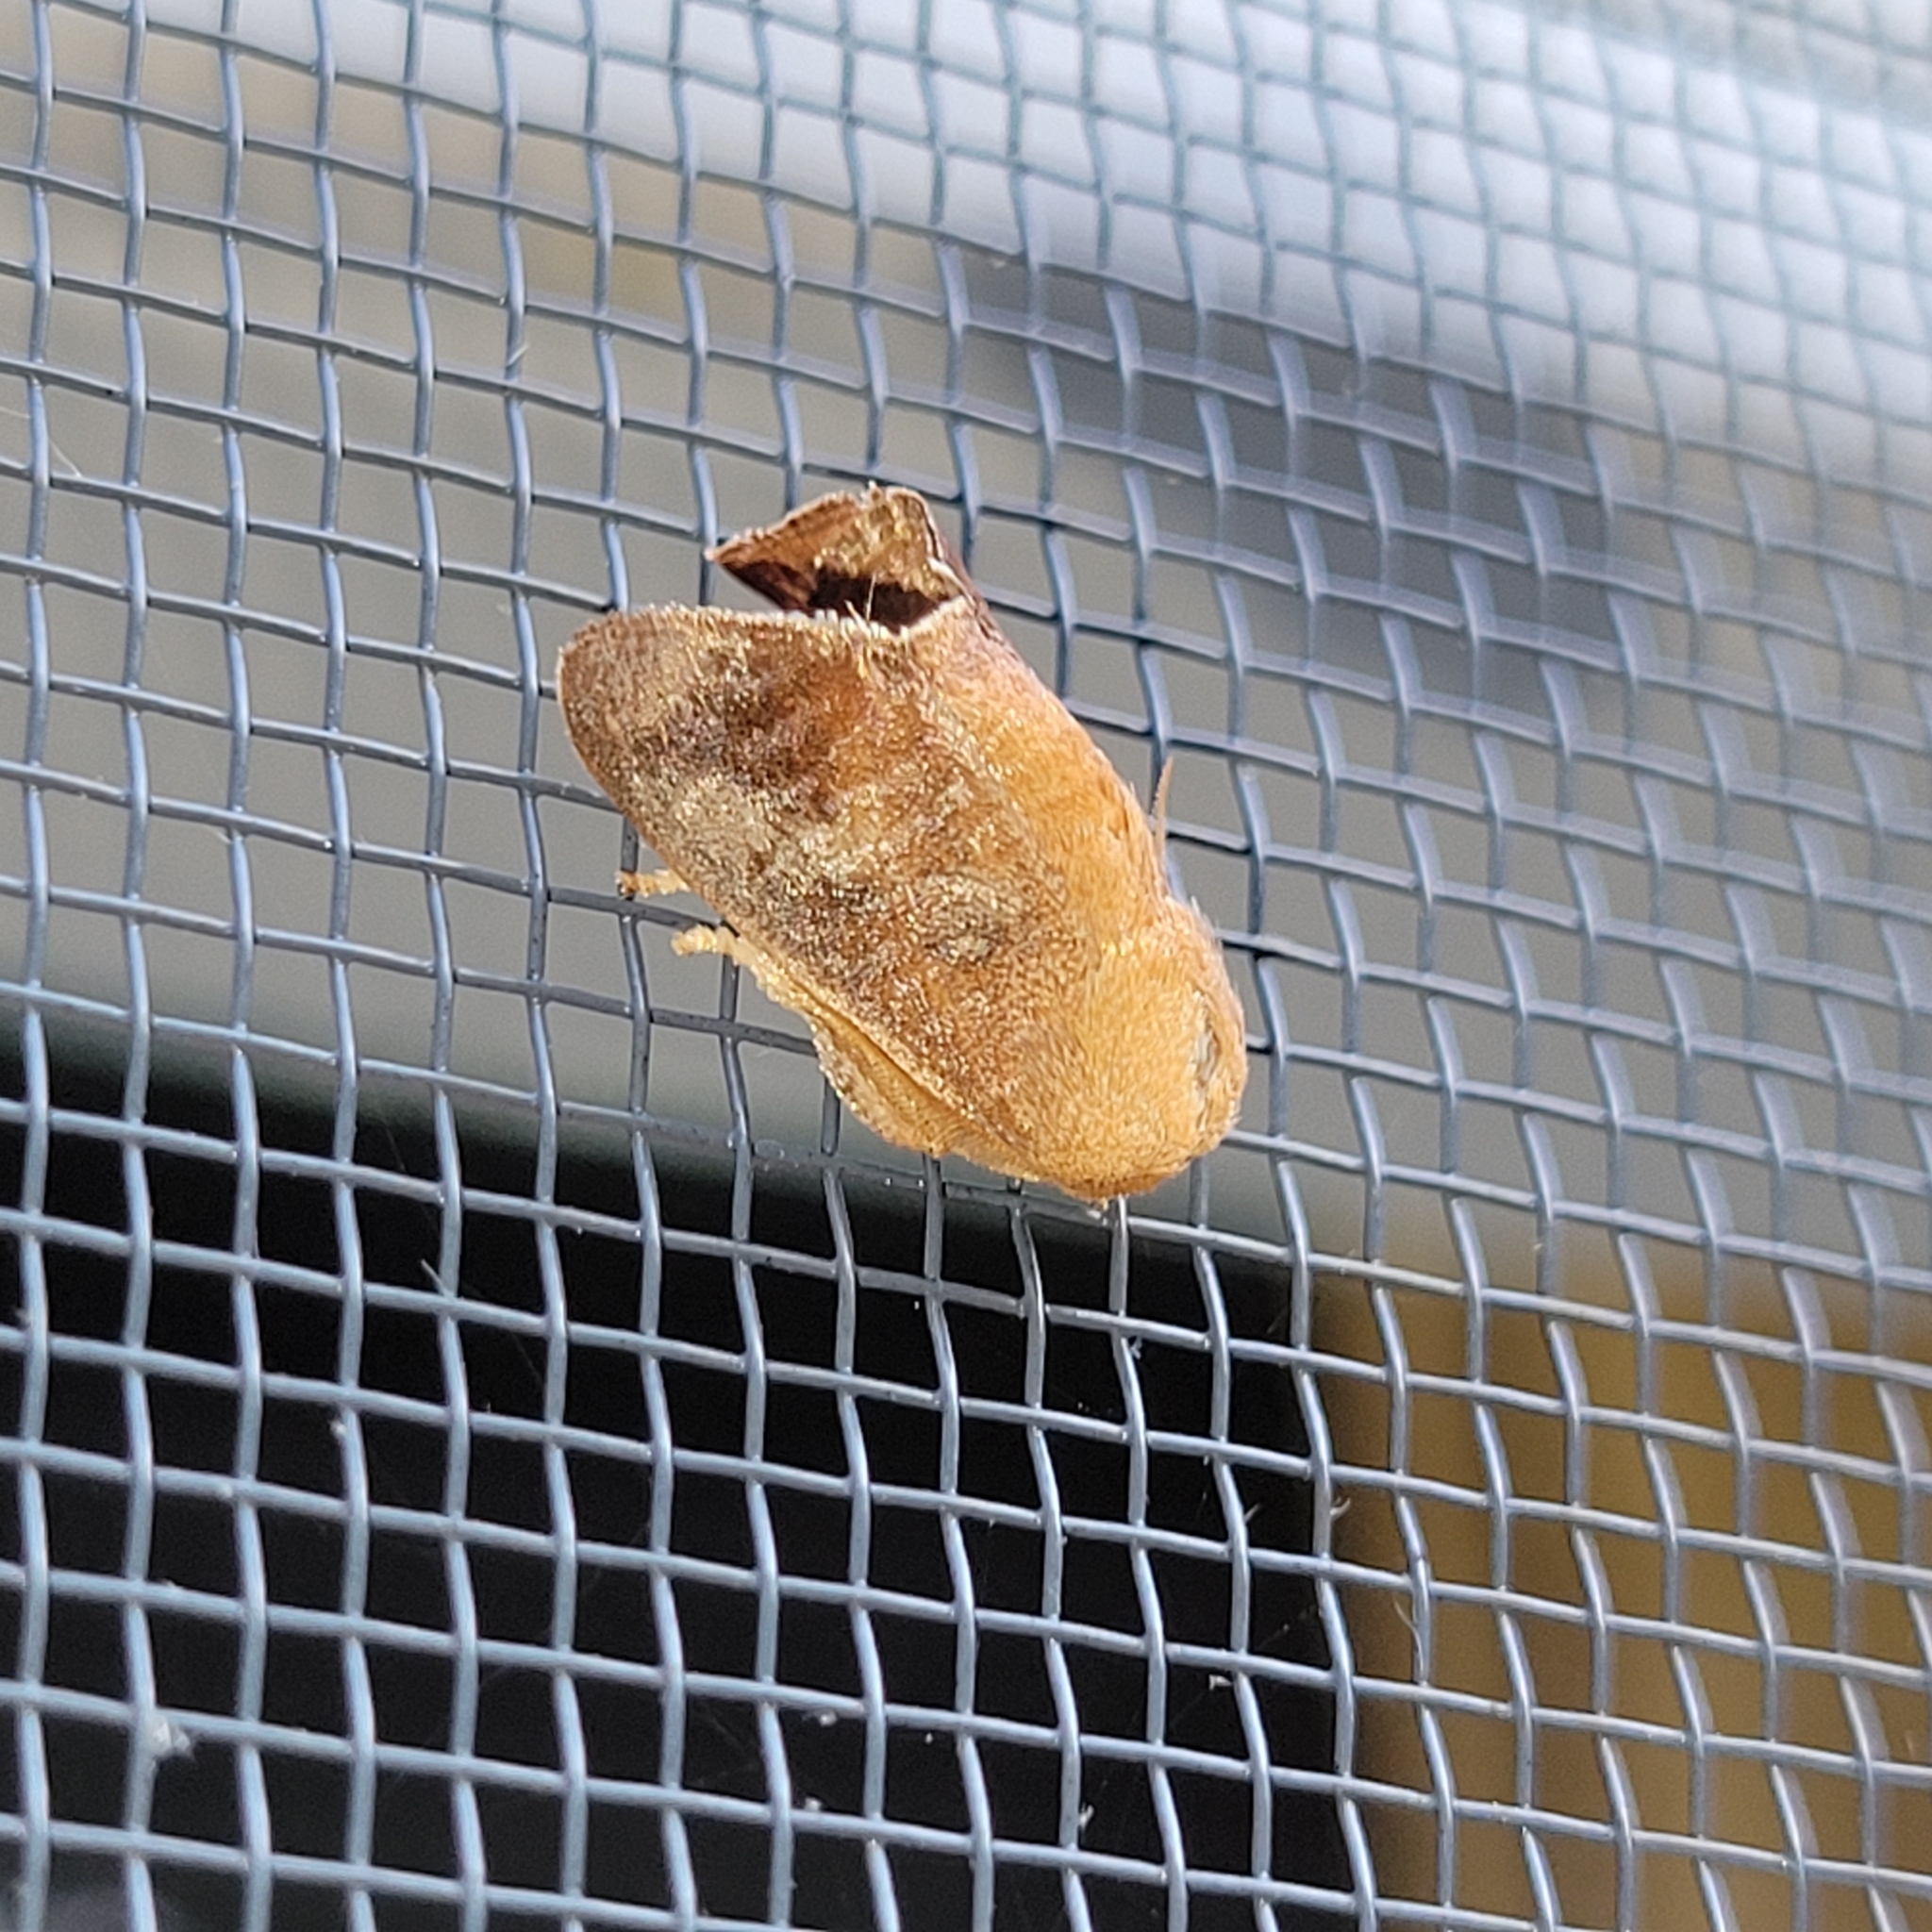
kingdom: Animalia
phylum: Arthropoda
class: Insecta
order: Lepidoptera
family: Limacodidae
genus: Isa
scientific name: Isa textula
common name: Crowned slug moth
